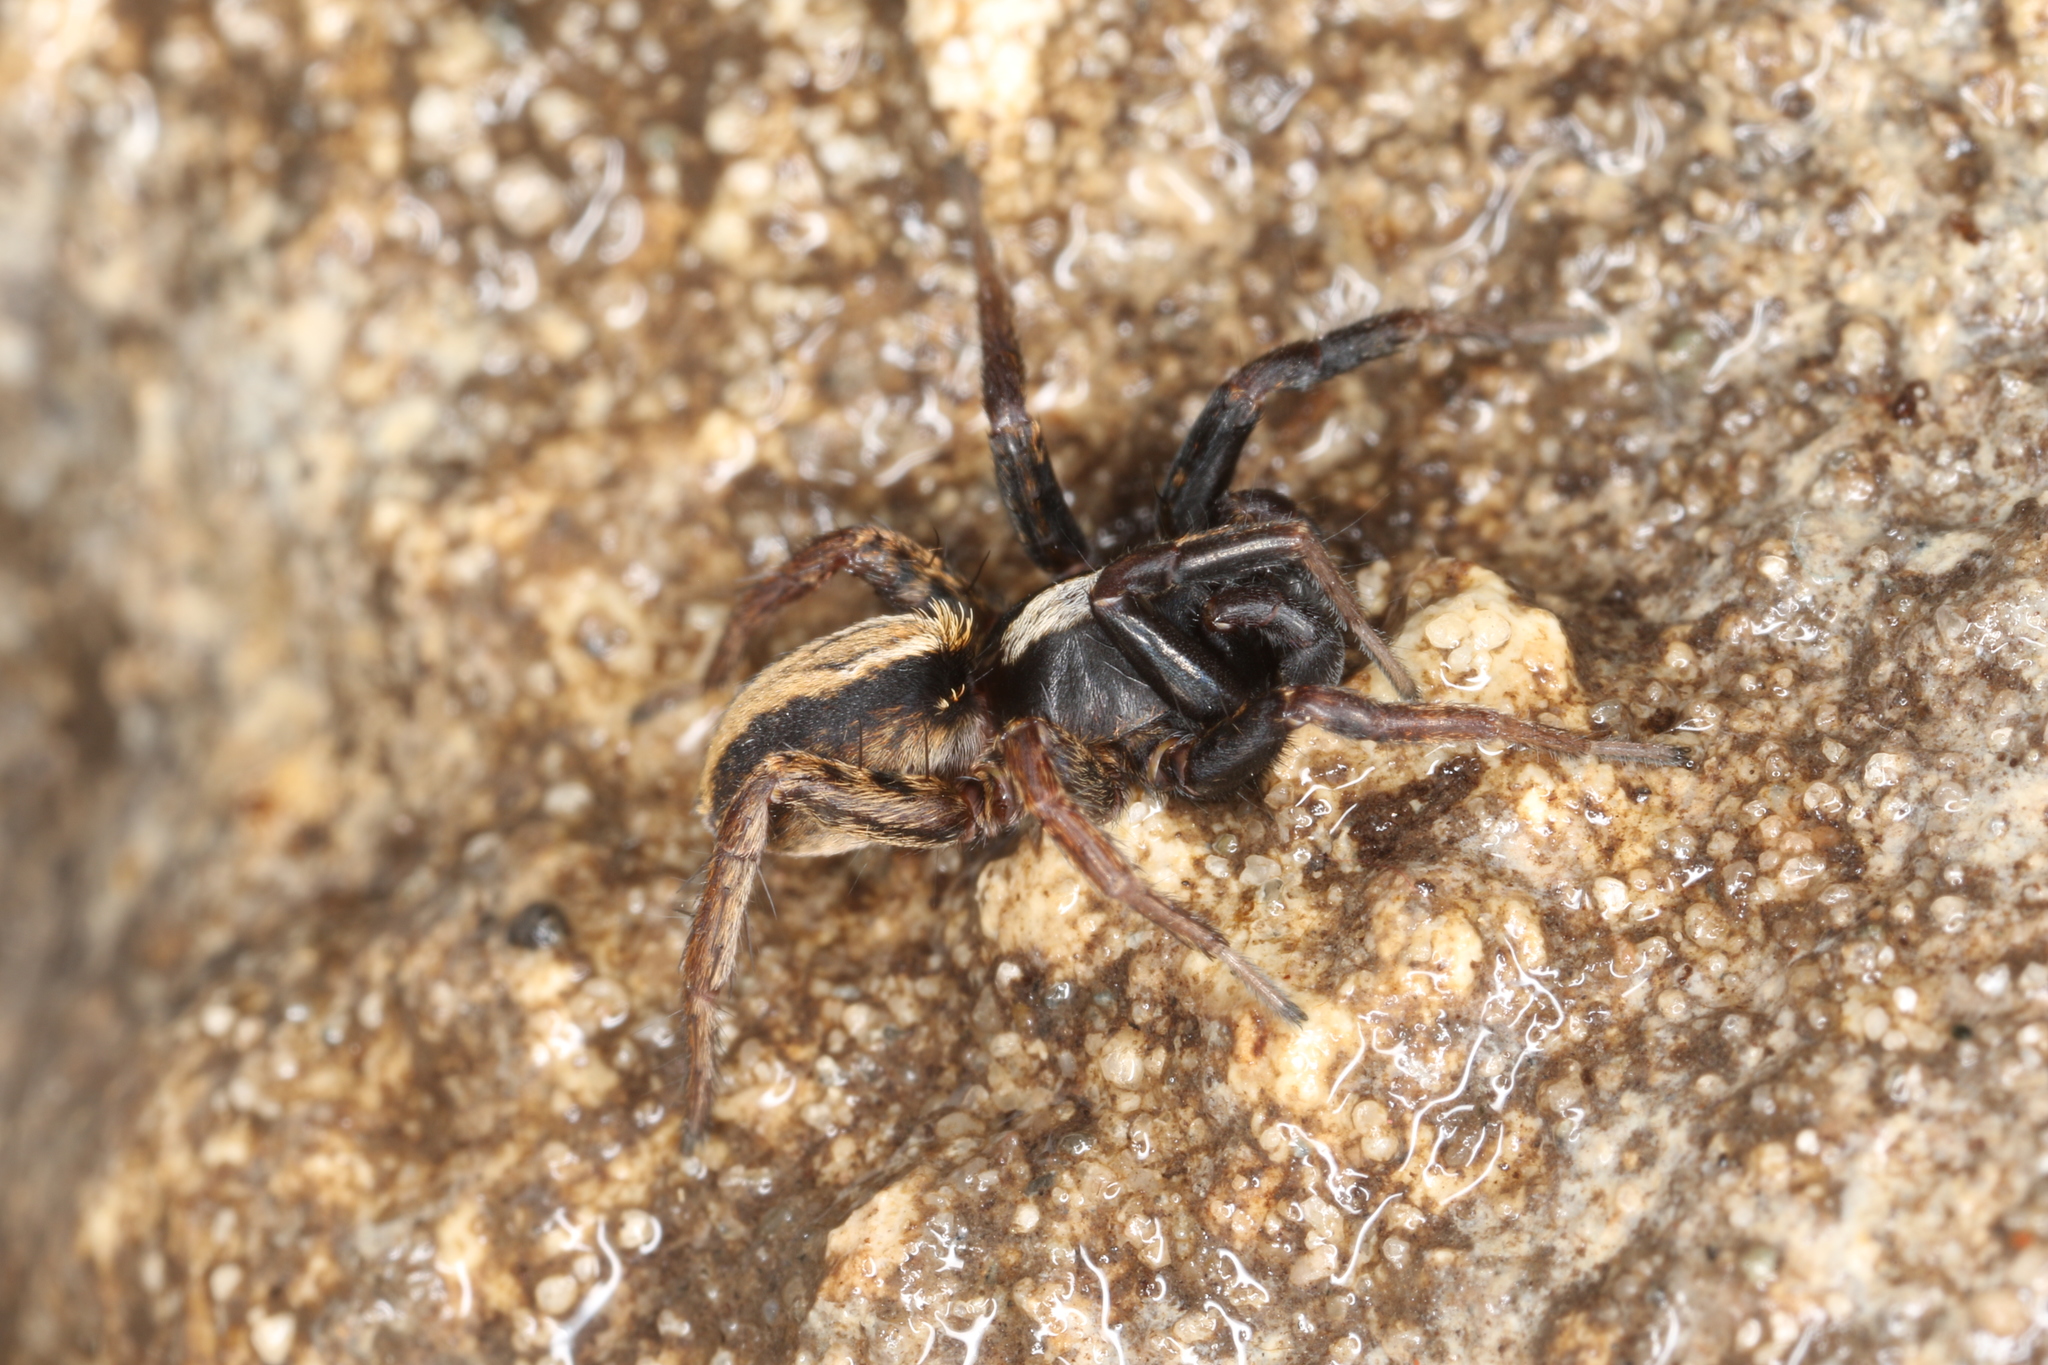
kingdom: Animalia
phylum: Arthropoda
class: Arachnida
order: Araneae
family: Lycosidae
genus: Alopecosa
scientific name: Alopecosa pulverulenta
